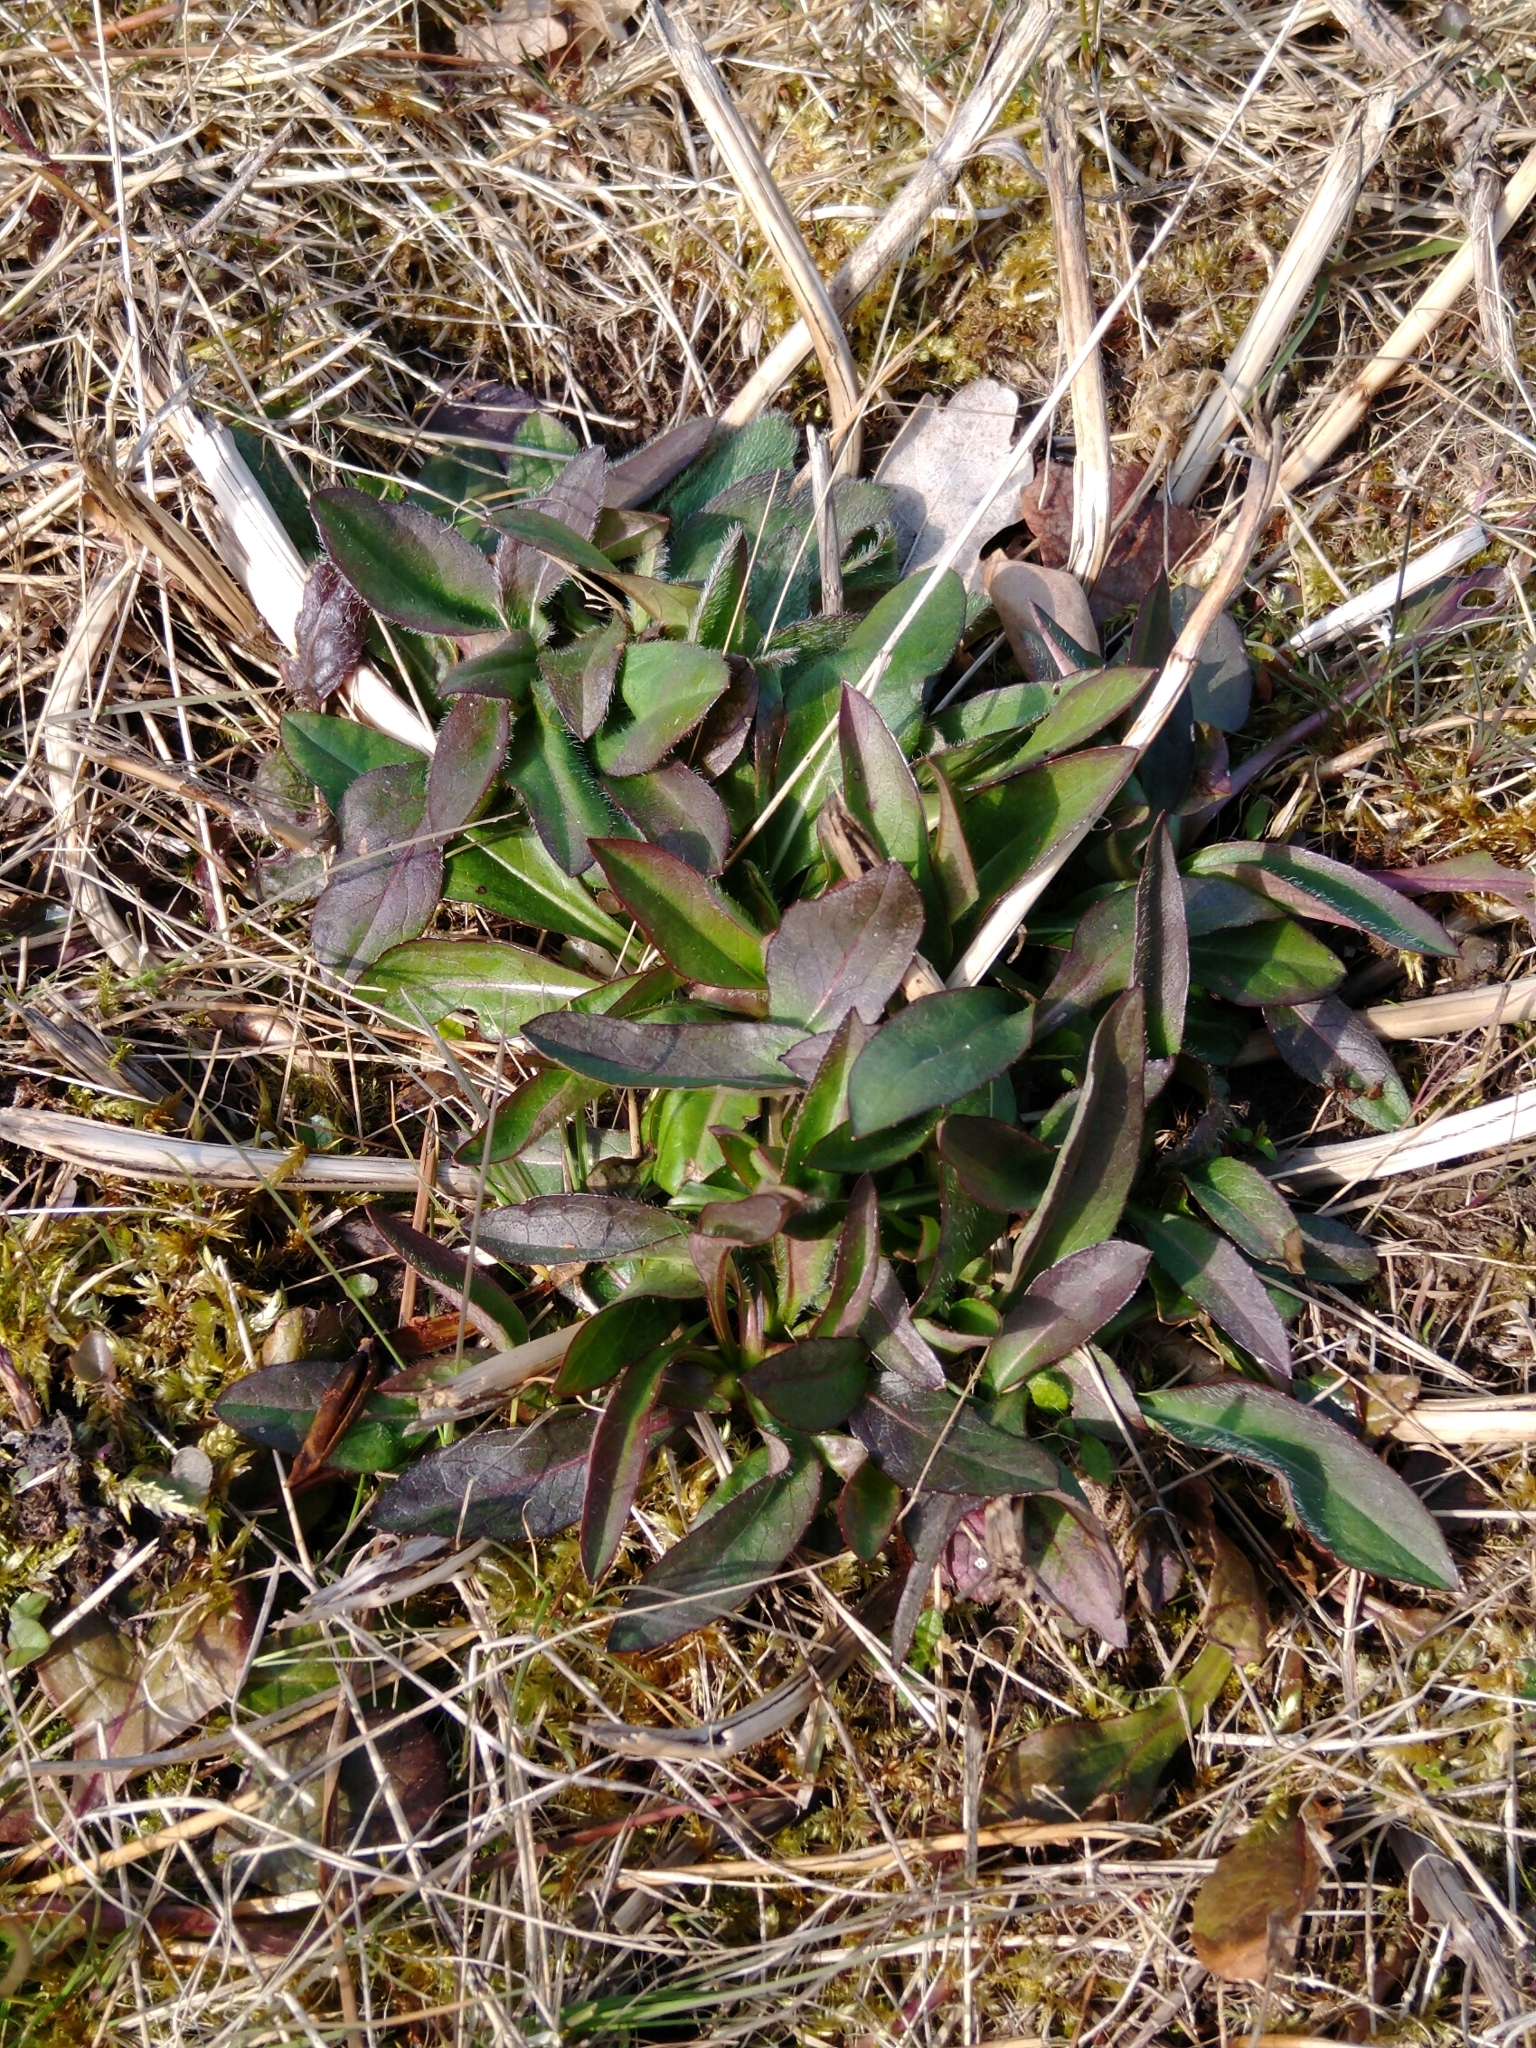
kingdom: Plantae
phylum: Tracheophyta
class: Magnoliopsida
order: Dipsacales
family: Caprifoliaceae
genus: Succisa
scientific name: Succisa pratensis
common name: Devil's-bit
